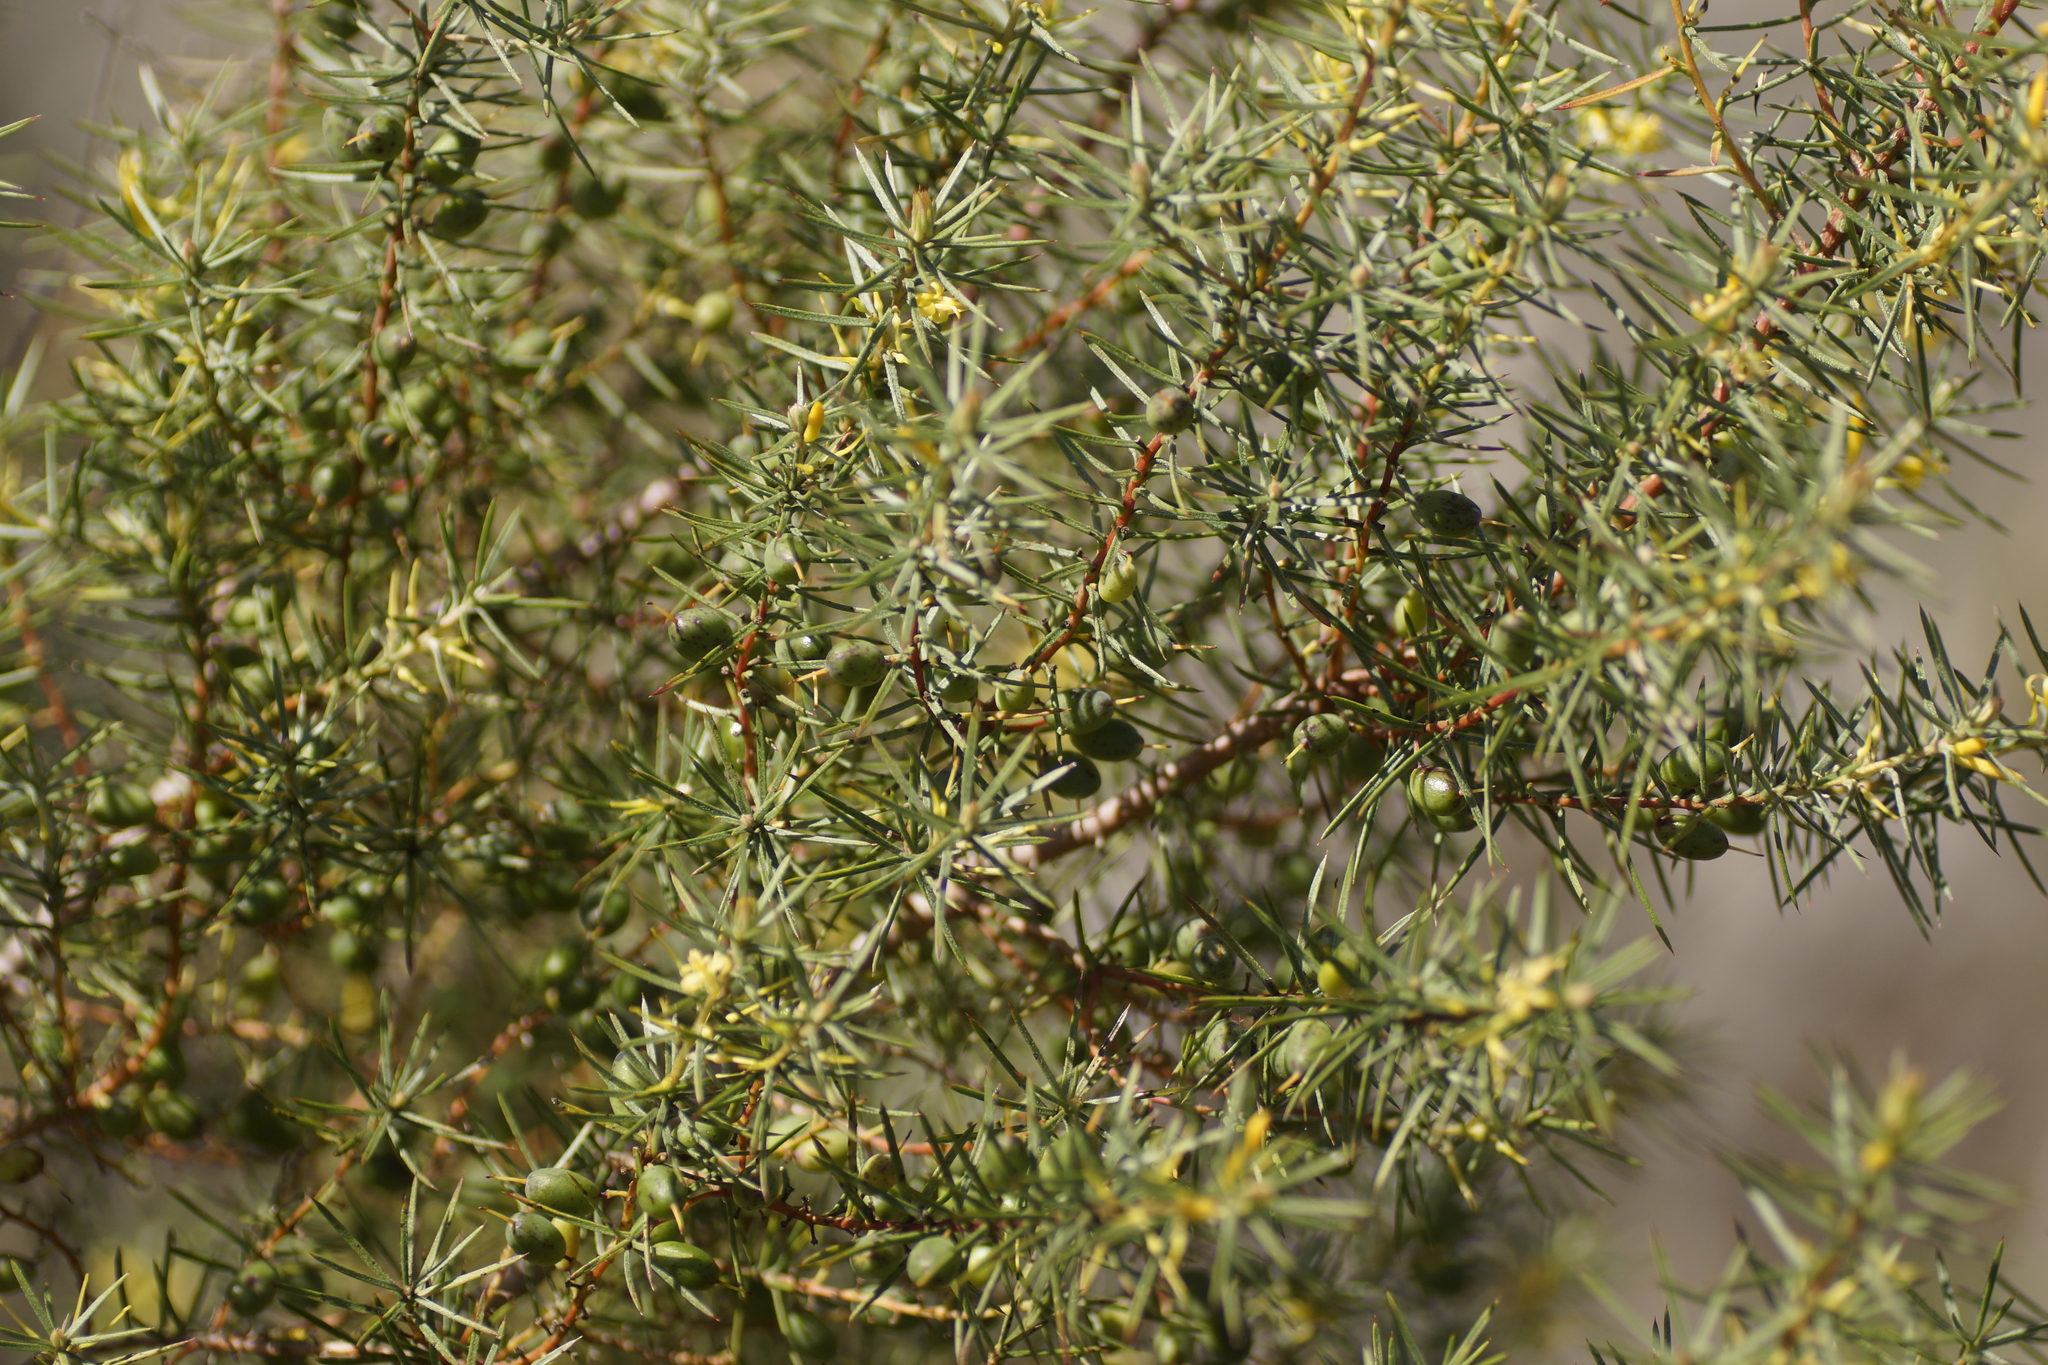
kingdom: Plantae
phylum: Tracheophyta
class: Magnoliopsida
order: Proteales
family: Proteaceae
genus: Persoonia
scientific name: Persoonia juniperina
